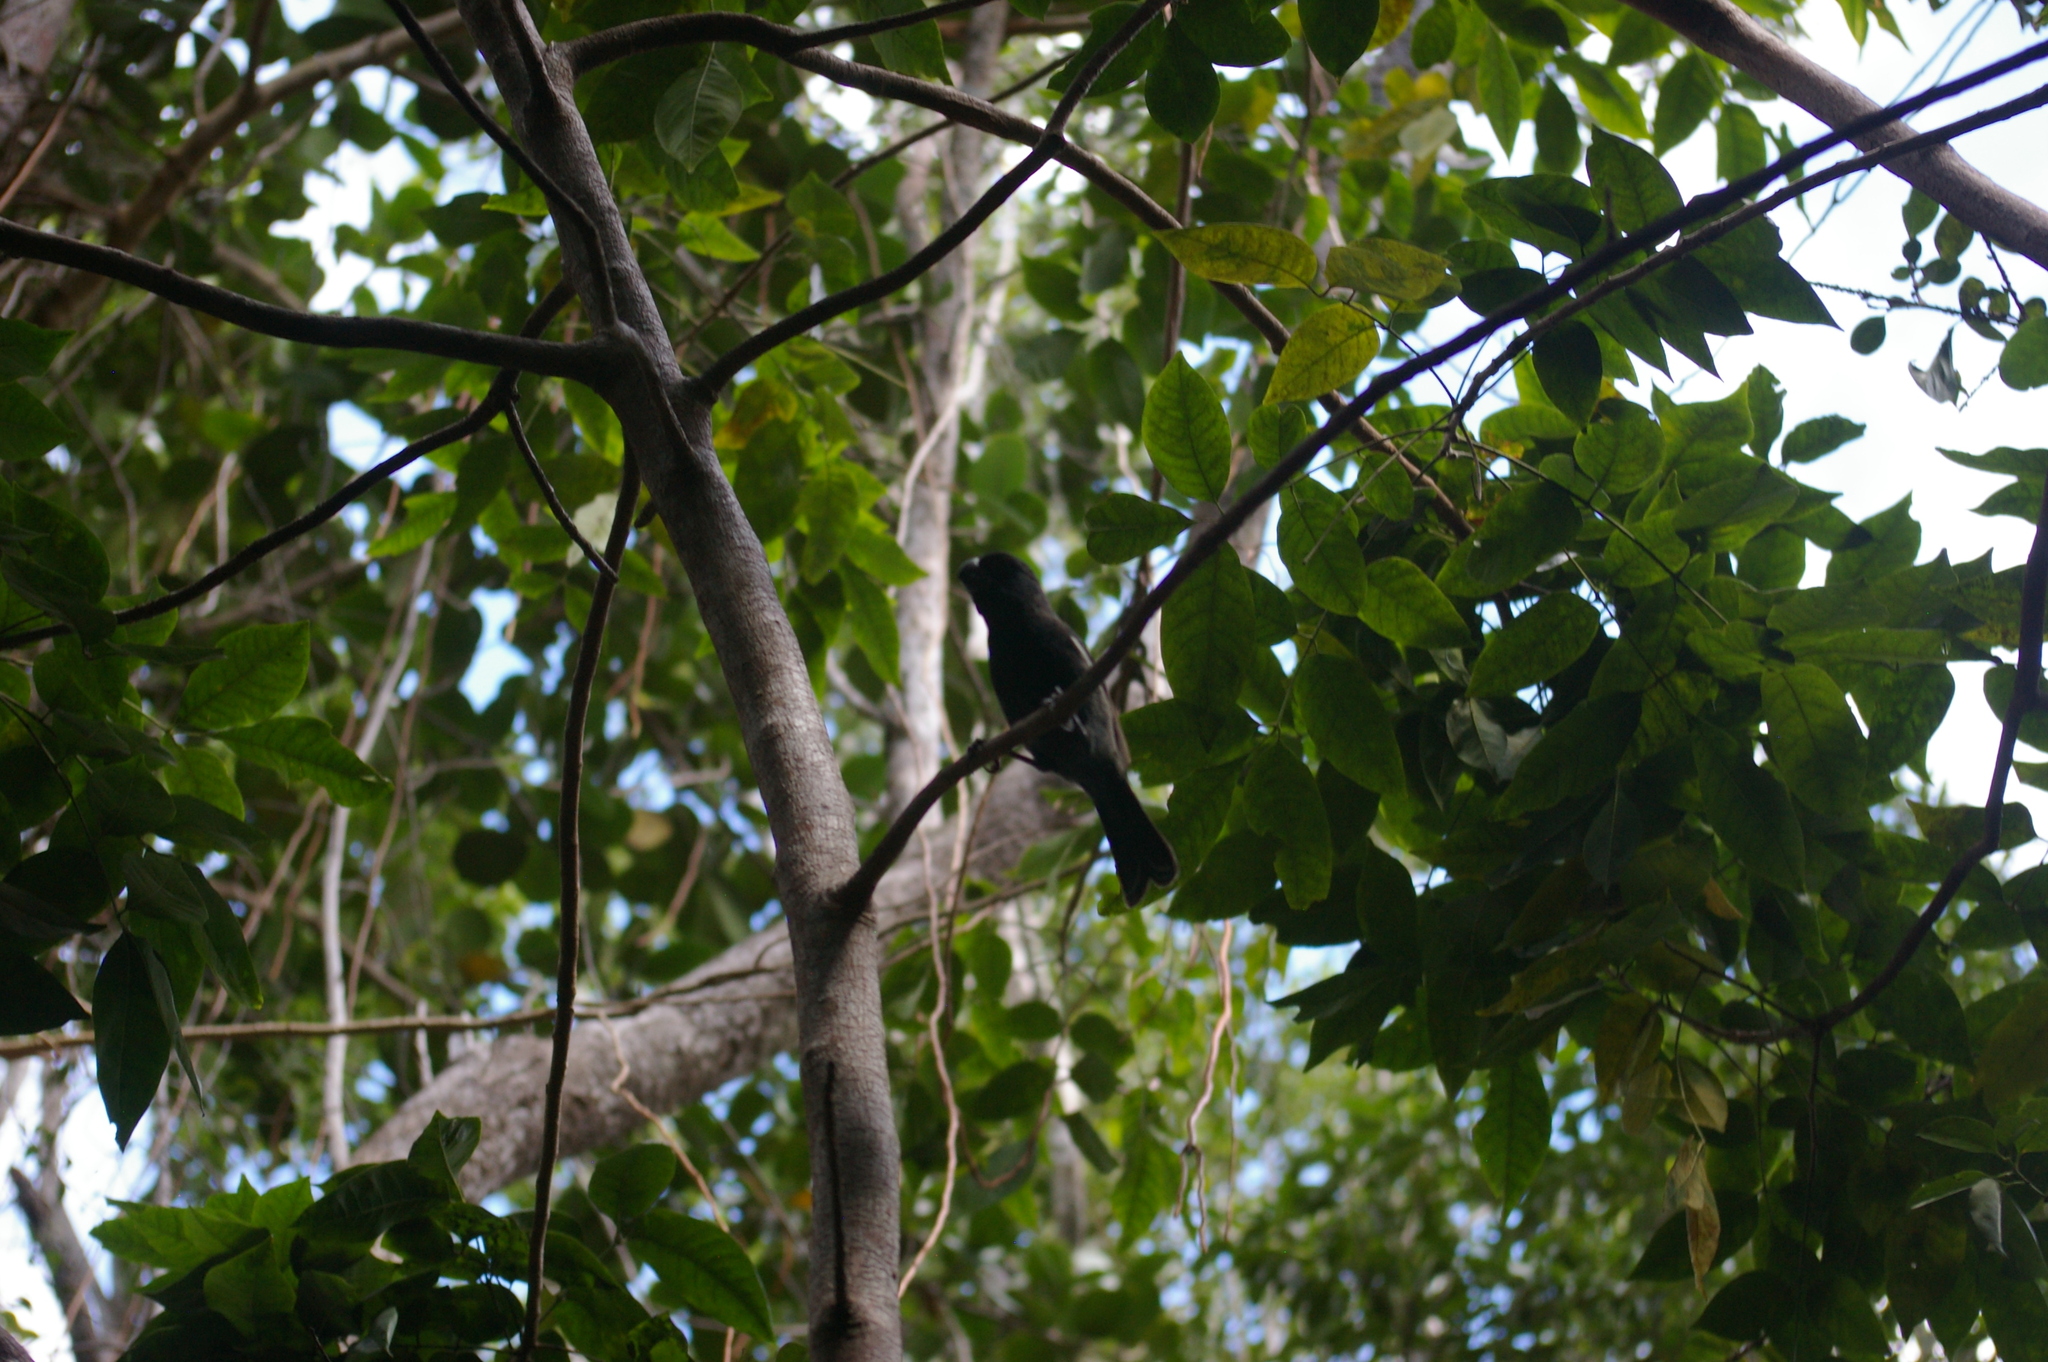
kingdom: Animalia
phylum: Chordata
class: Aves
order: Passeriformes
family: Thraupidae
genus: Melopyrrha
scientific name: Melopyrrha nigra
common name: Cuban bullfinch
